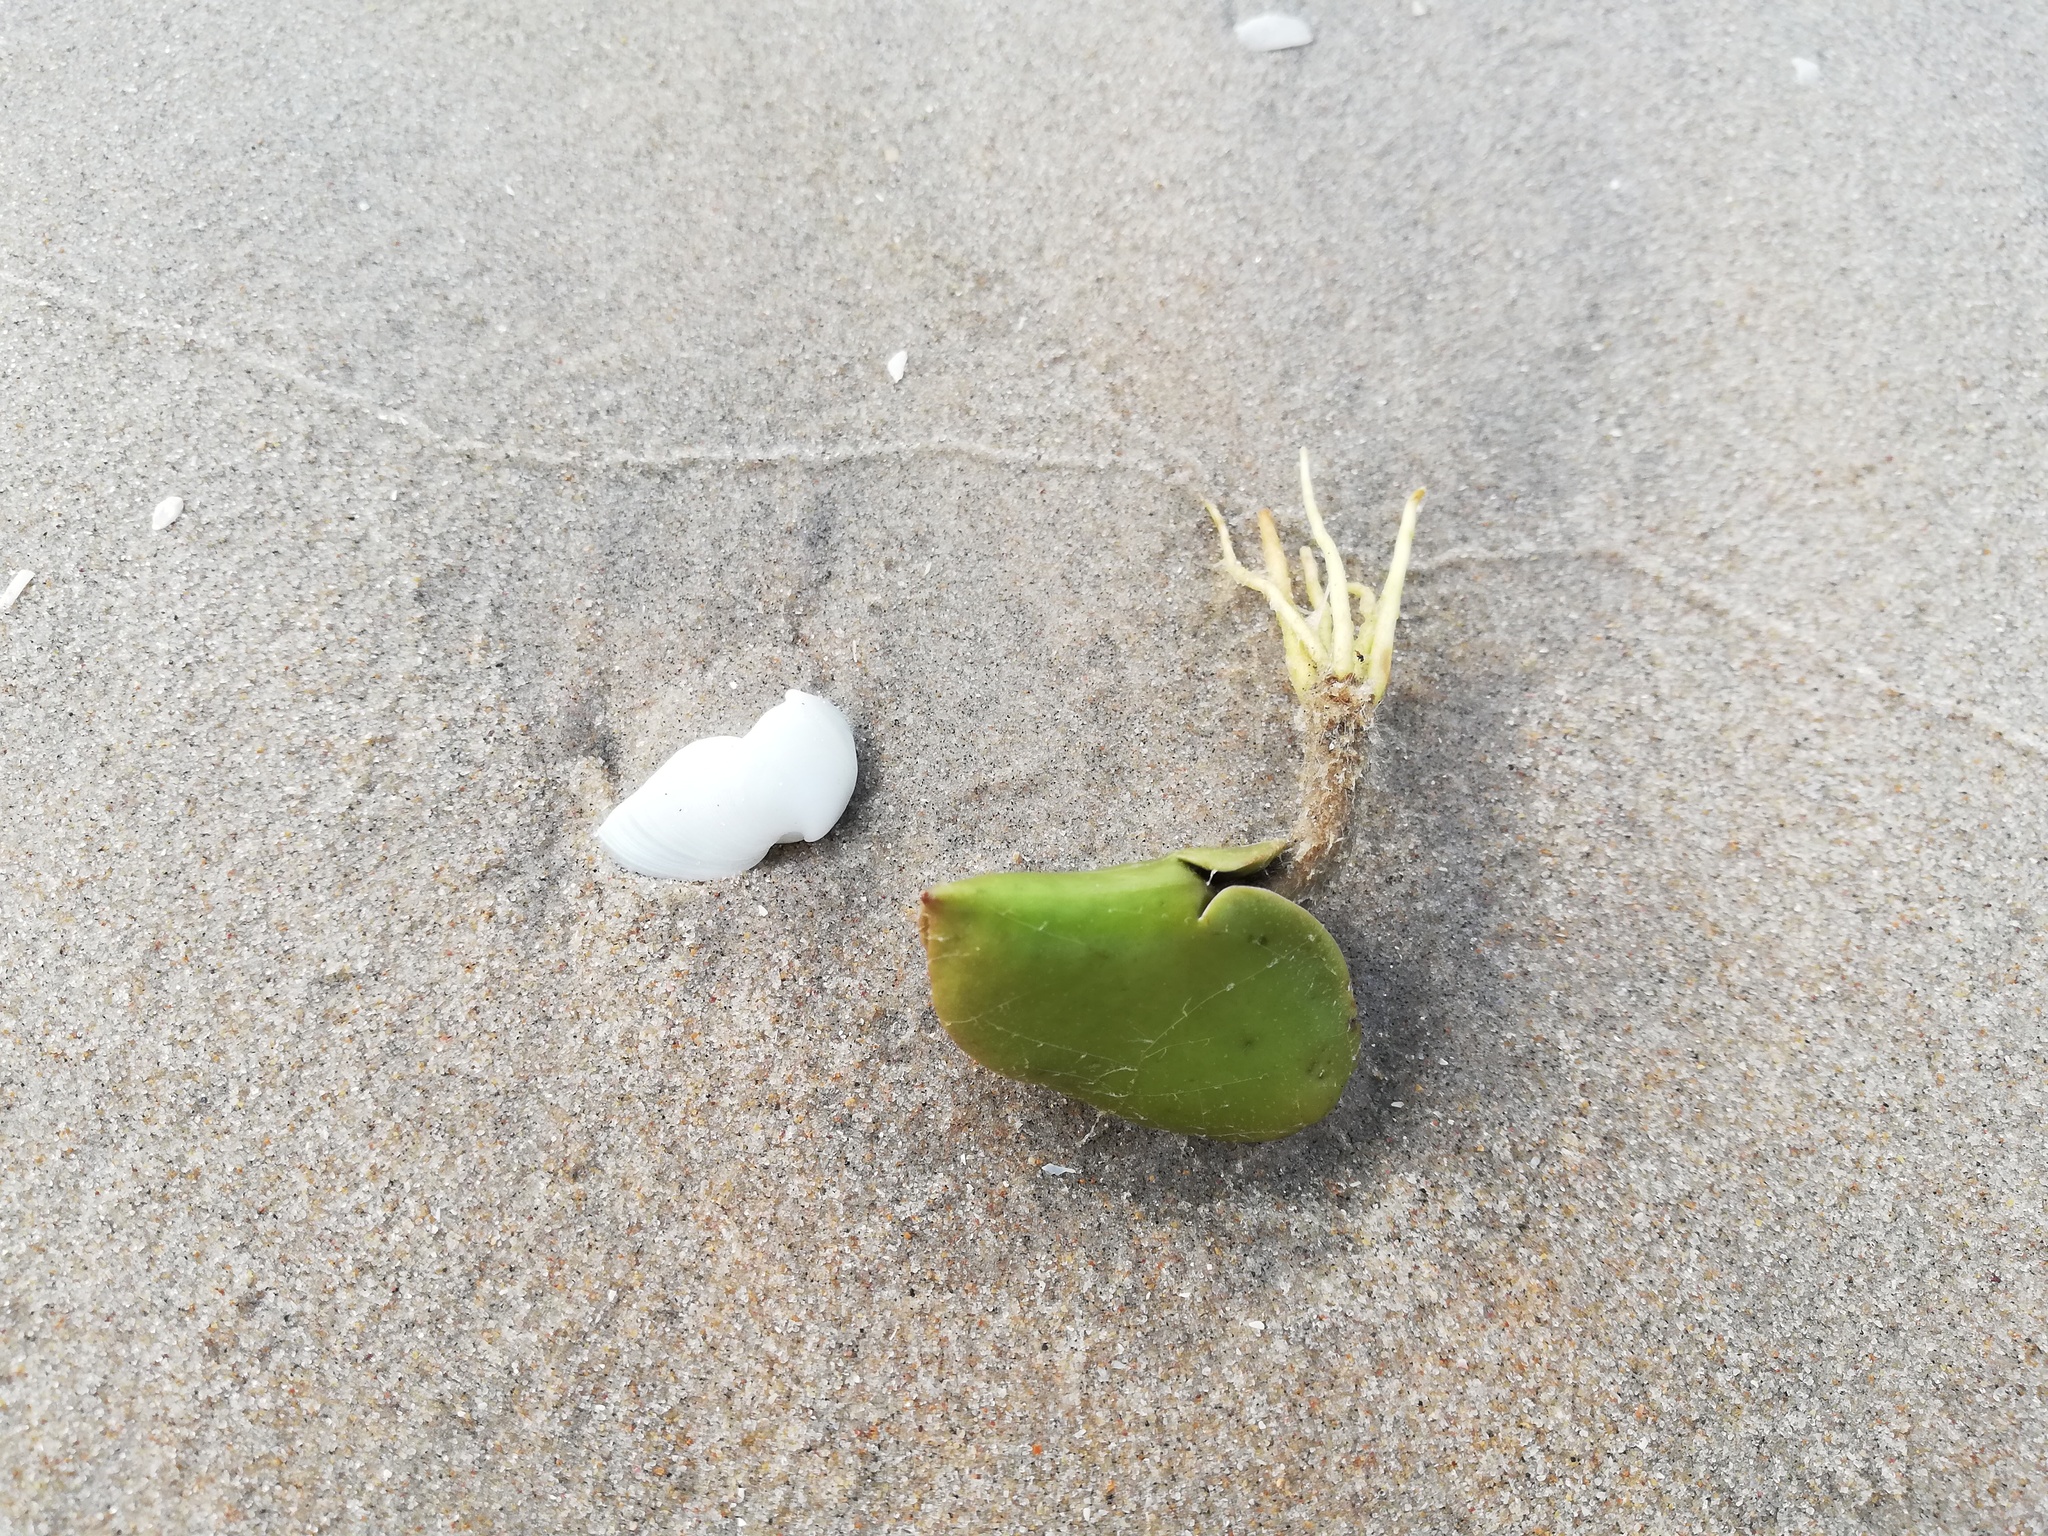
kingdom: Plantae
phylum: Tracheophyta
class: Magnoliopsida
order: Lamiales
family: Acanthaceae
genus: Avicennia
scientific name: Avicennia germinans
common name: Black mangrove
